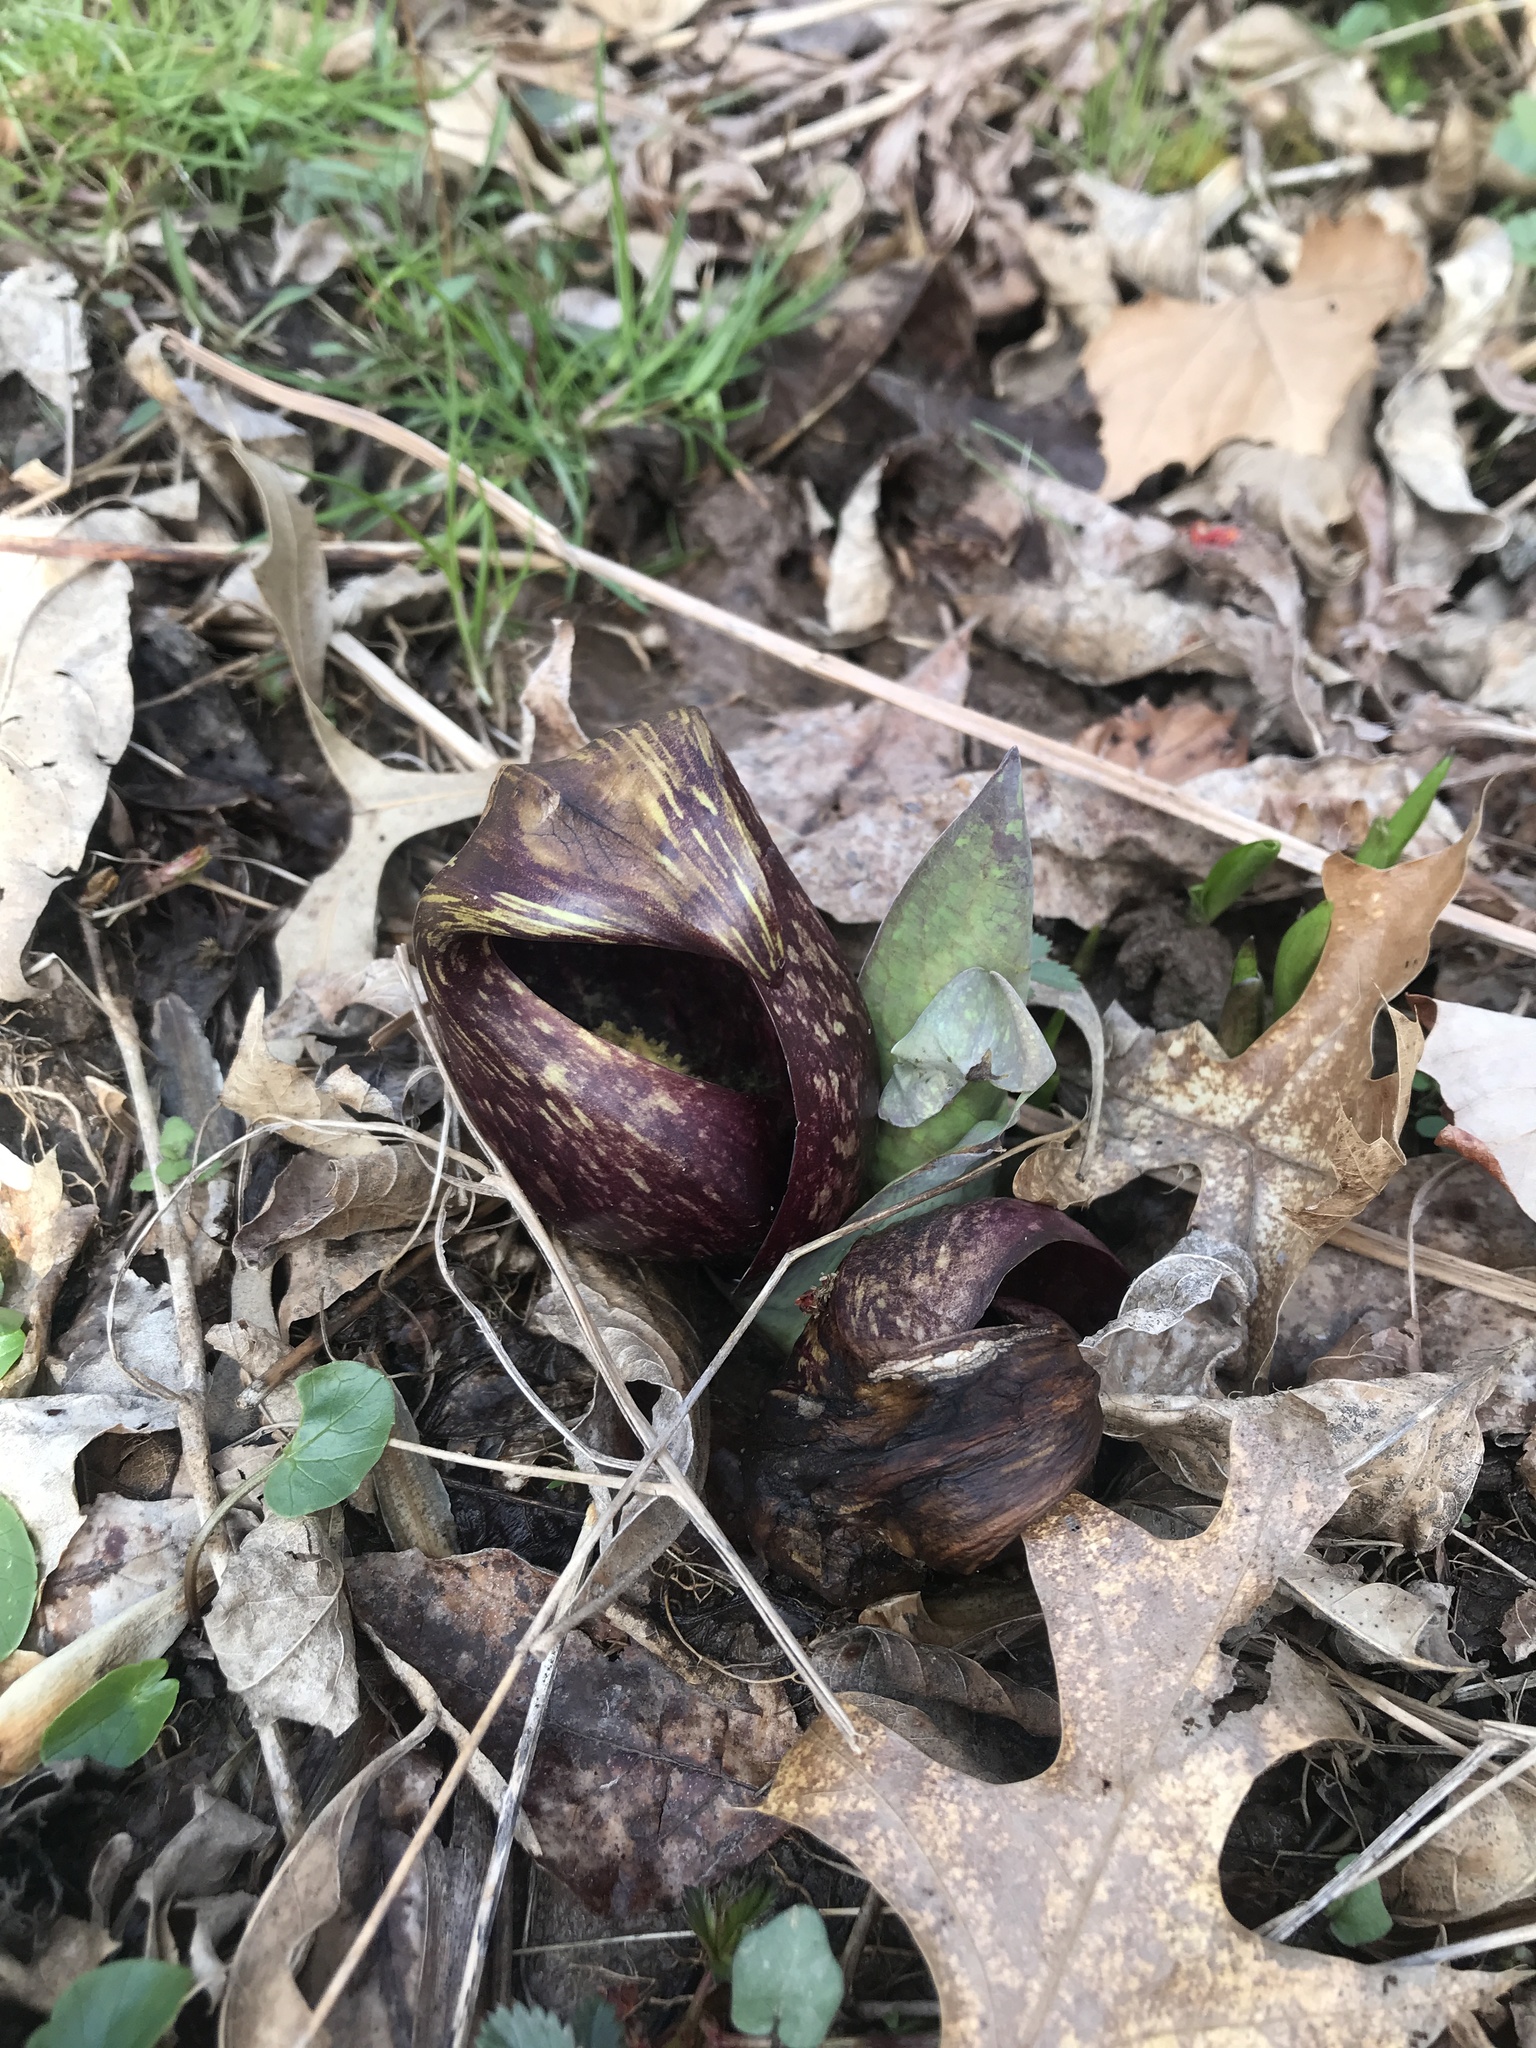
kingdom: Plantae
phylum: Tracheophyta
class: Liliopsida
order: Alismatales
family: Araceae
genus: Symplocarpus
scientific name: Symplocarpus foetidus
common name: Eastern skunk cabbage
